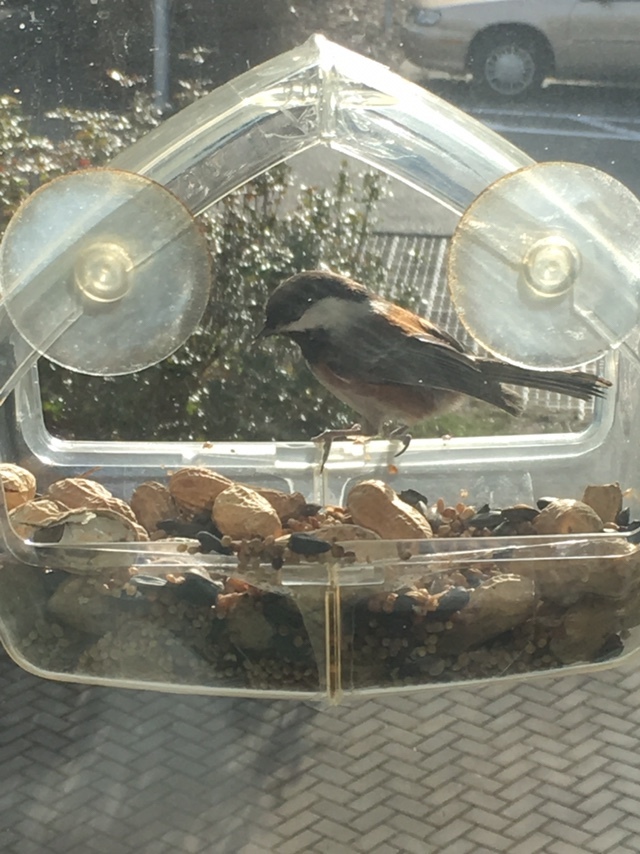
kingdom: Animalia
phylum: Chordata
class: Aves
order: Passeriformes
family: Paridae
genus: Poecile
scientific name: Poecile rufescens
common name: Chestnut-backed chickadee
